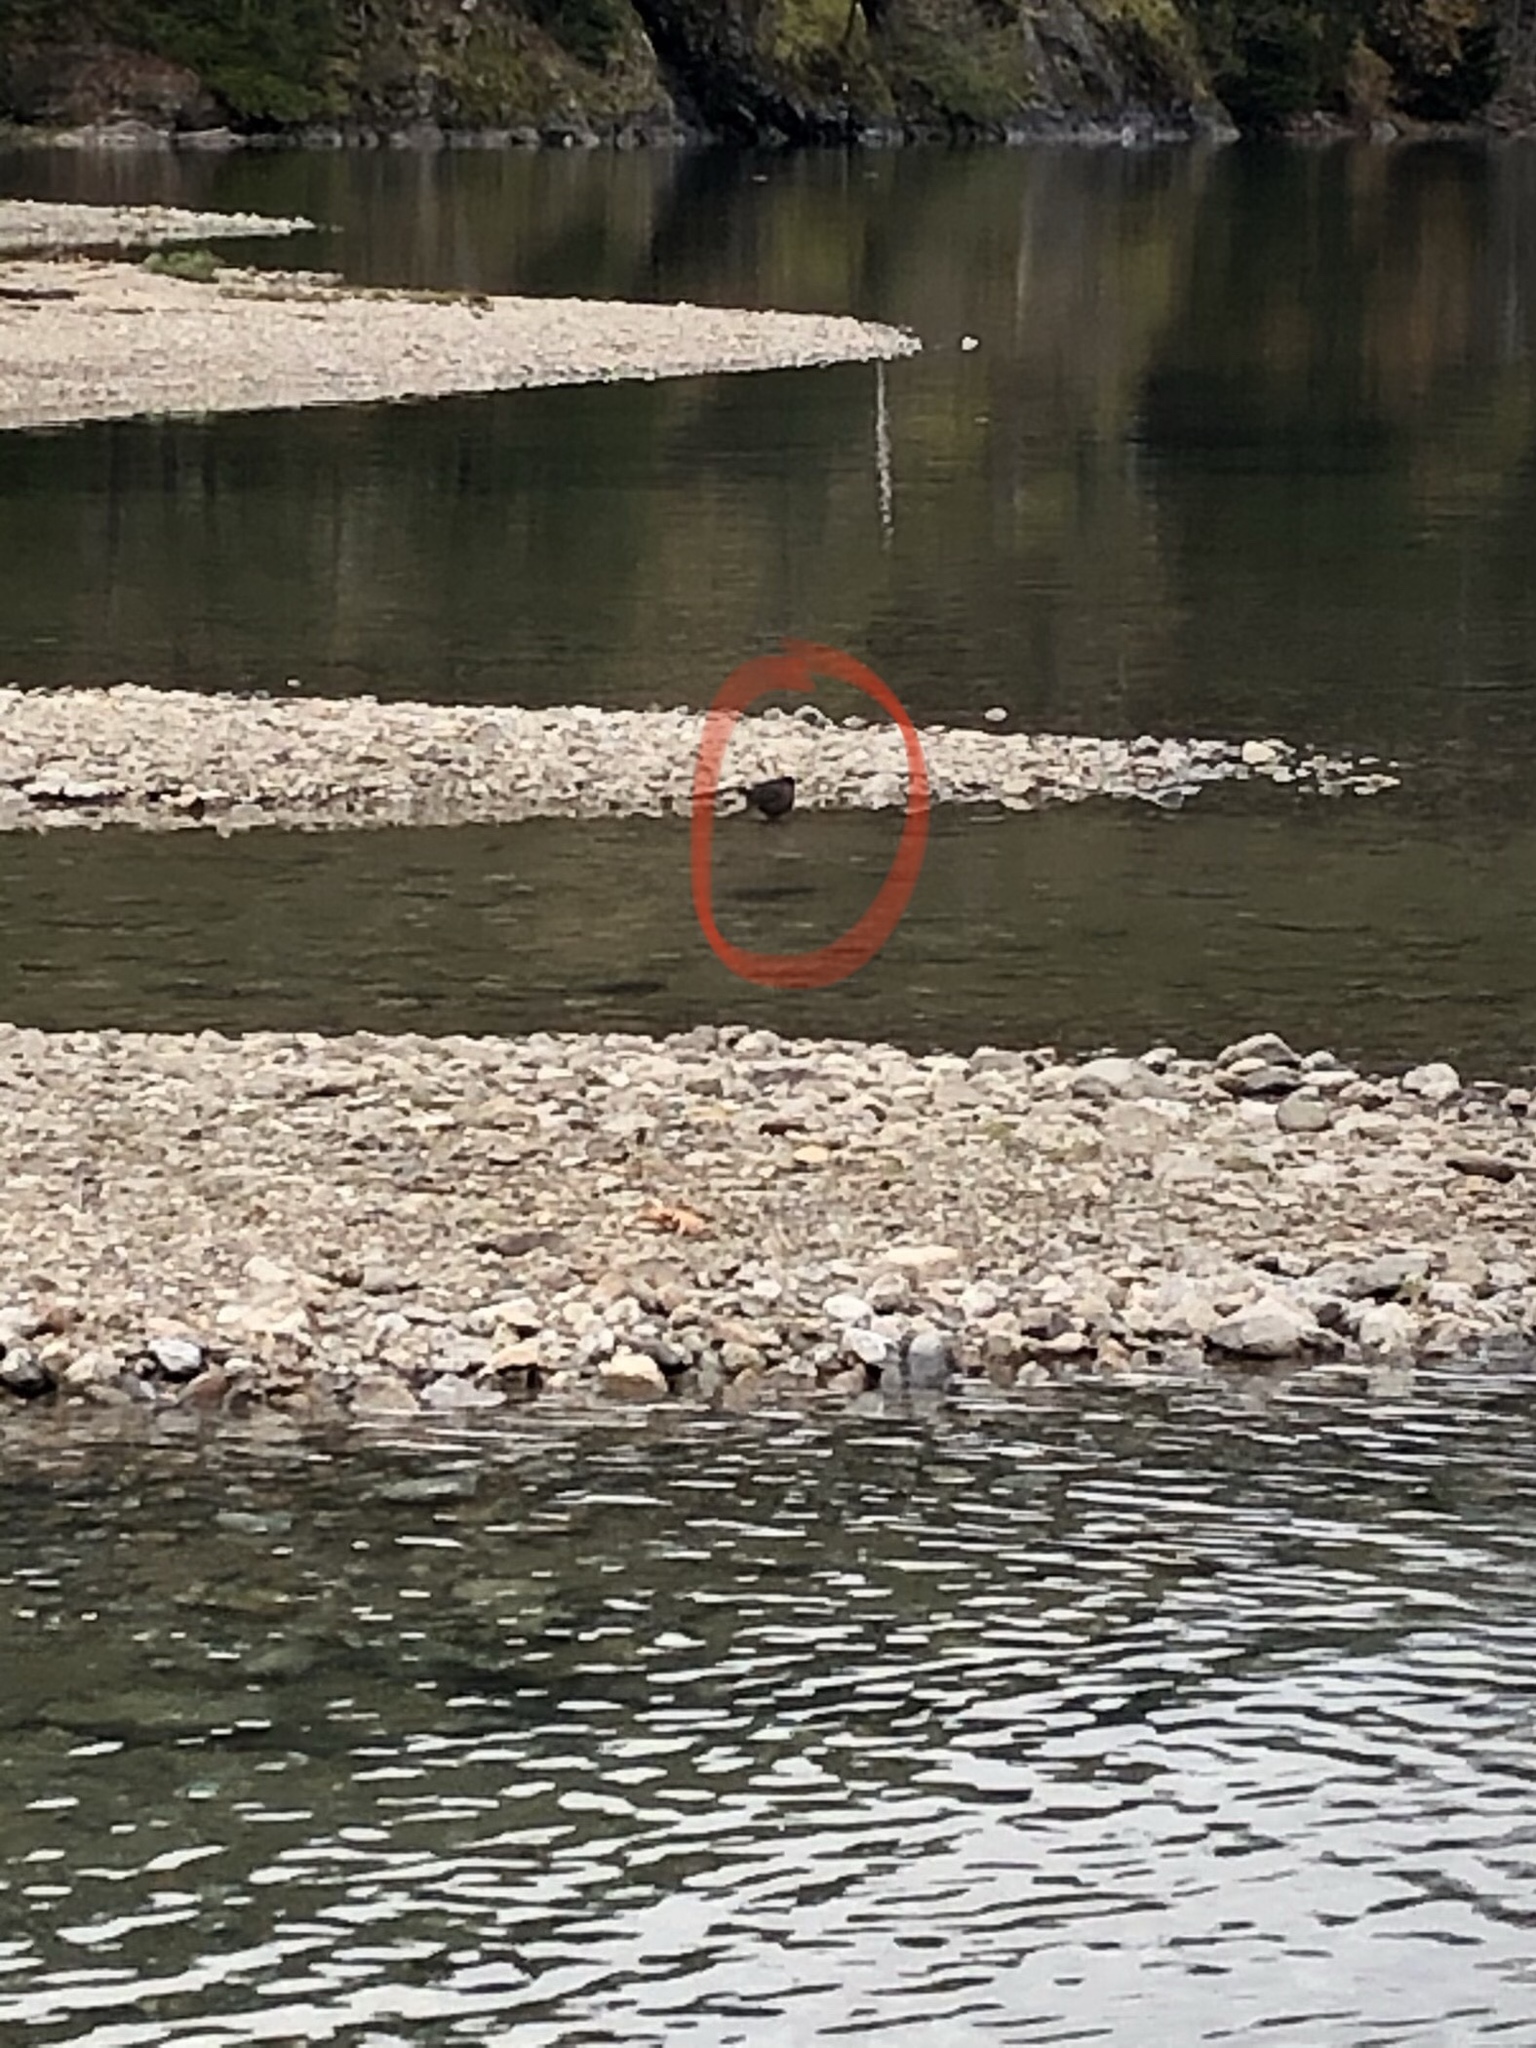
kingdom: Animalia
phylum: Chordata
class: Aves
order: Passeriformes
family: Cinclidae
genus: Cinclus
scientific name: Cinclus mexicanus
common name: American dipper
